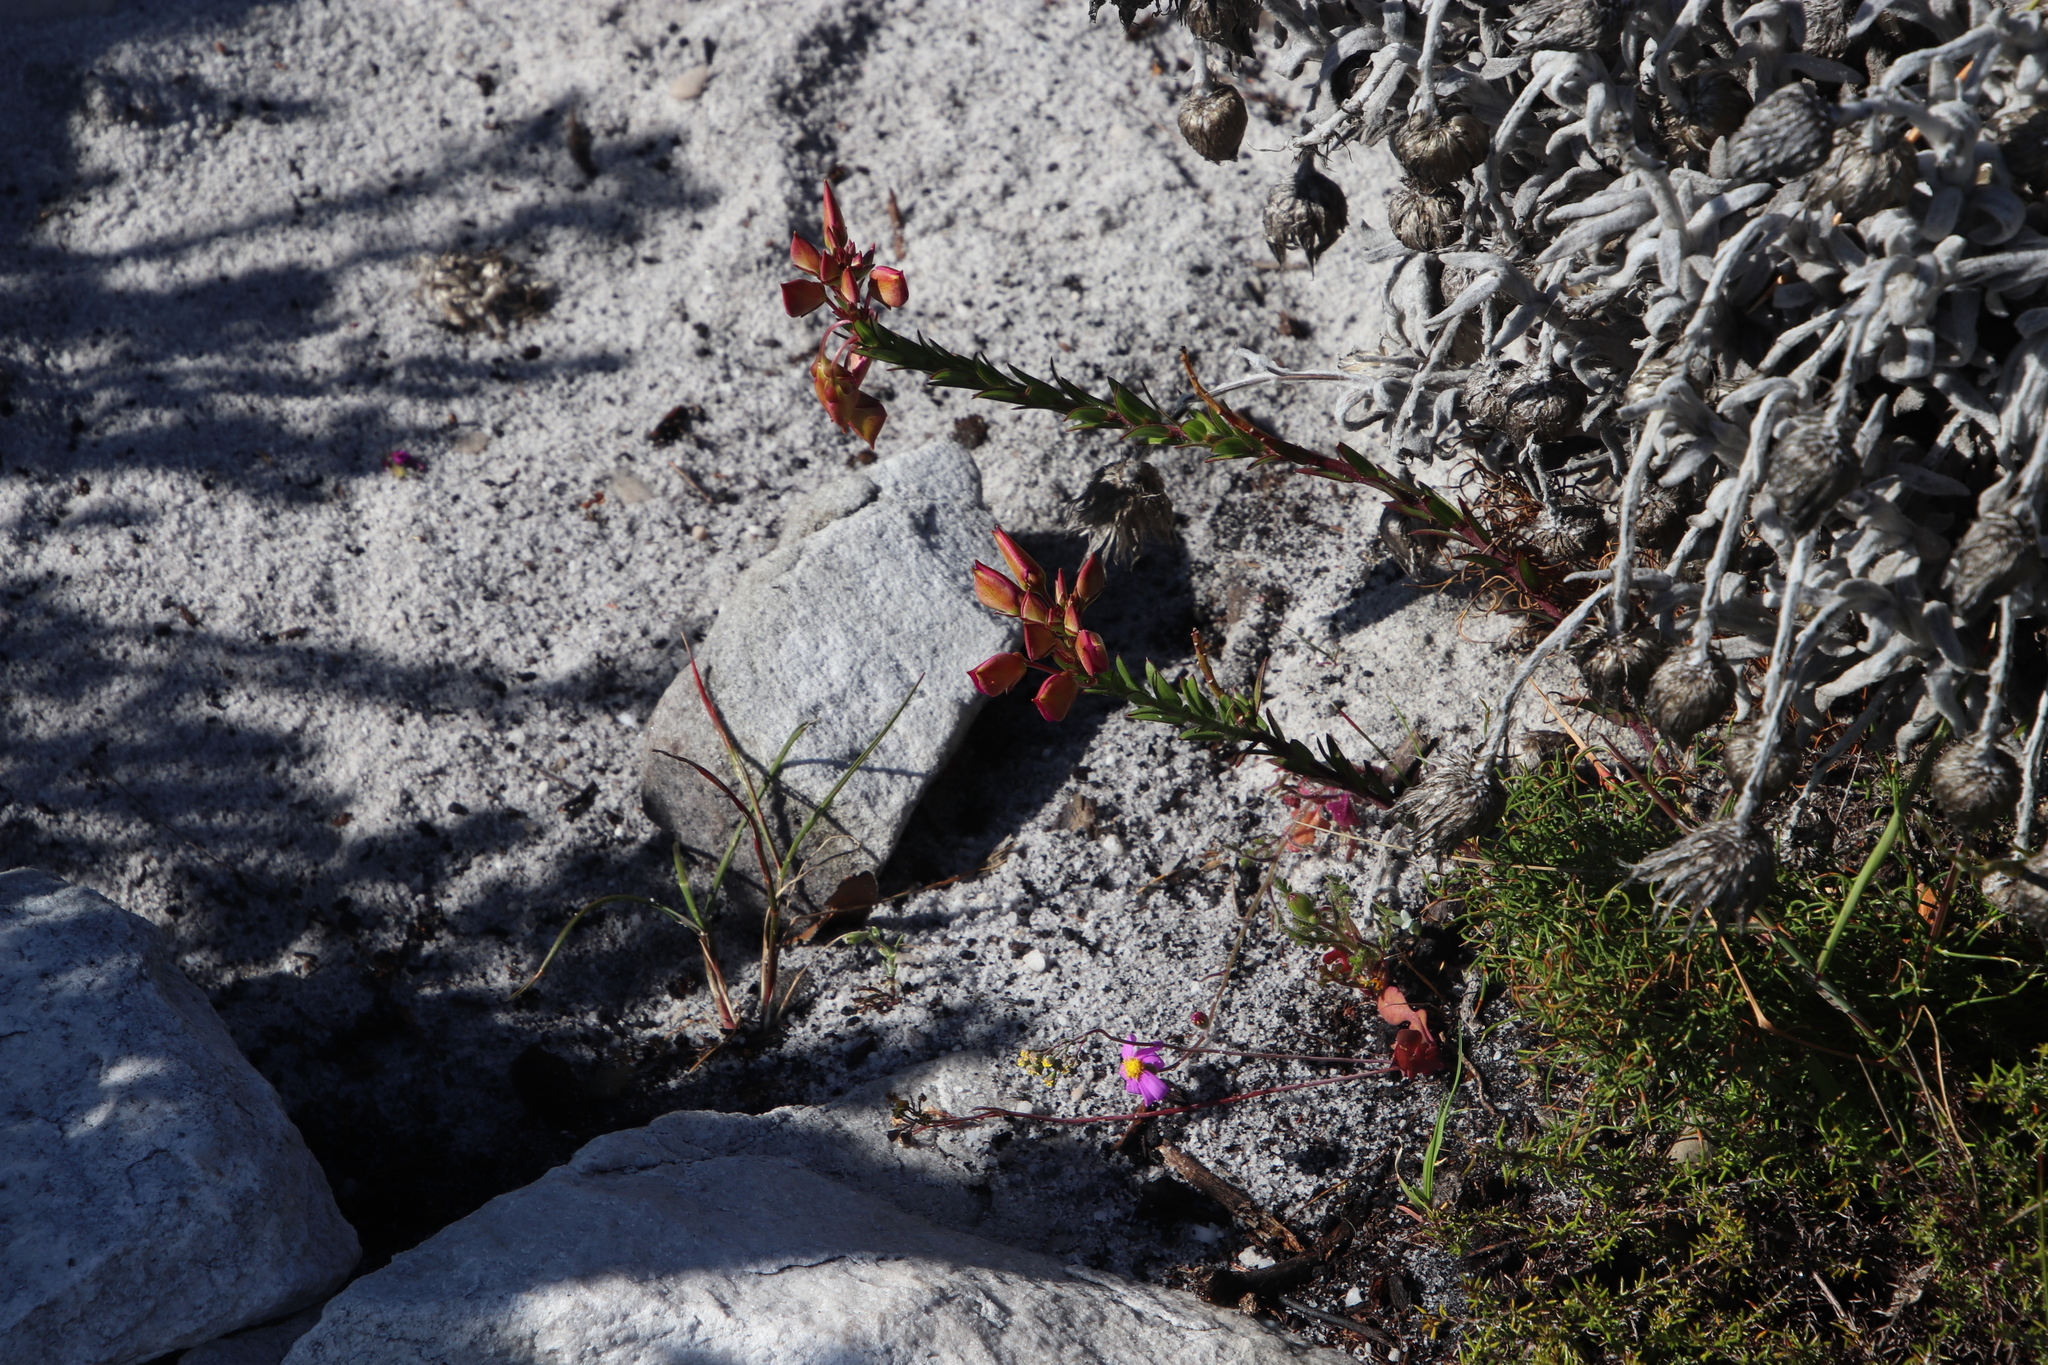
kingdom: Plantae
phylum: Tracheophyta
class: Magnoliopsida
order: Fabales
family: Polygalaceae
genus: Polygala
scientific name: Polygala bracteolata
